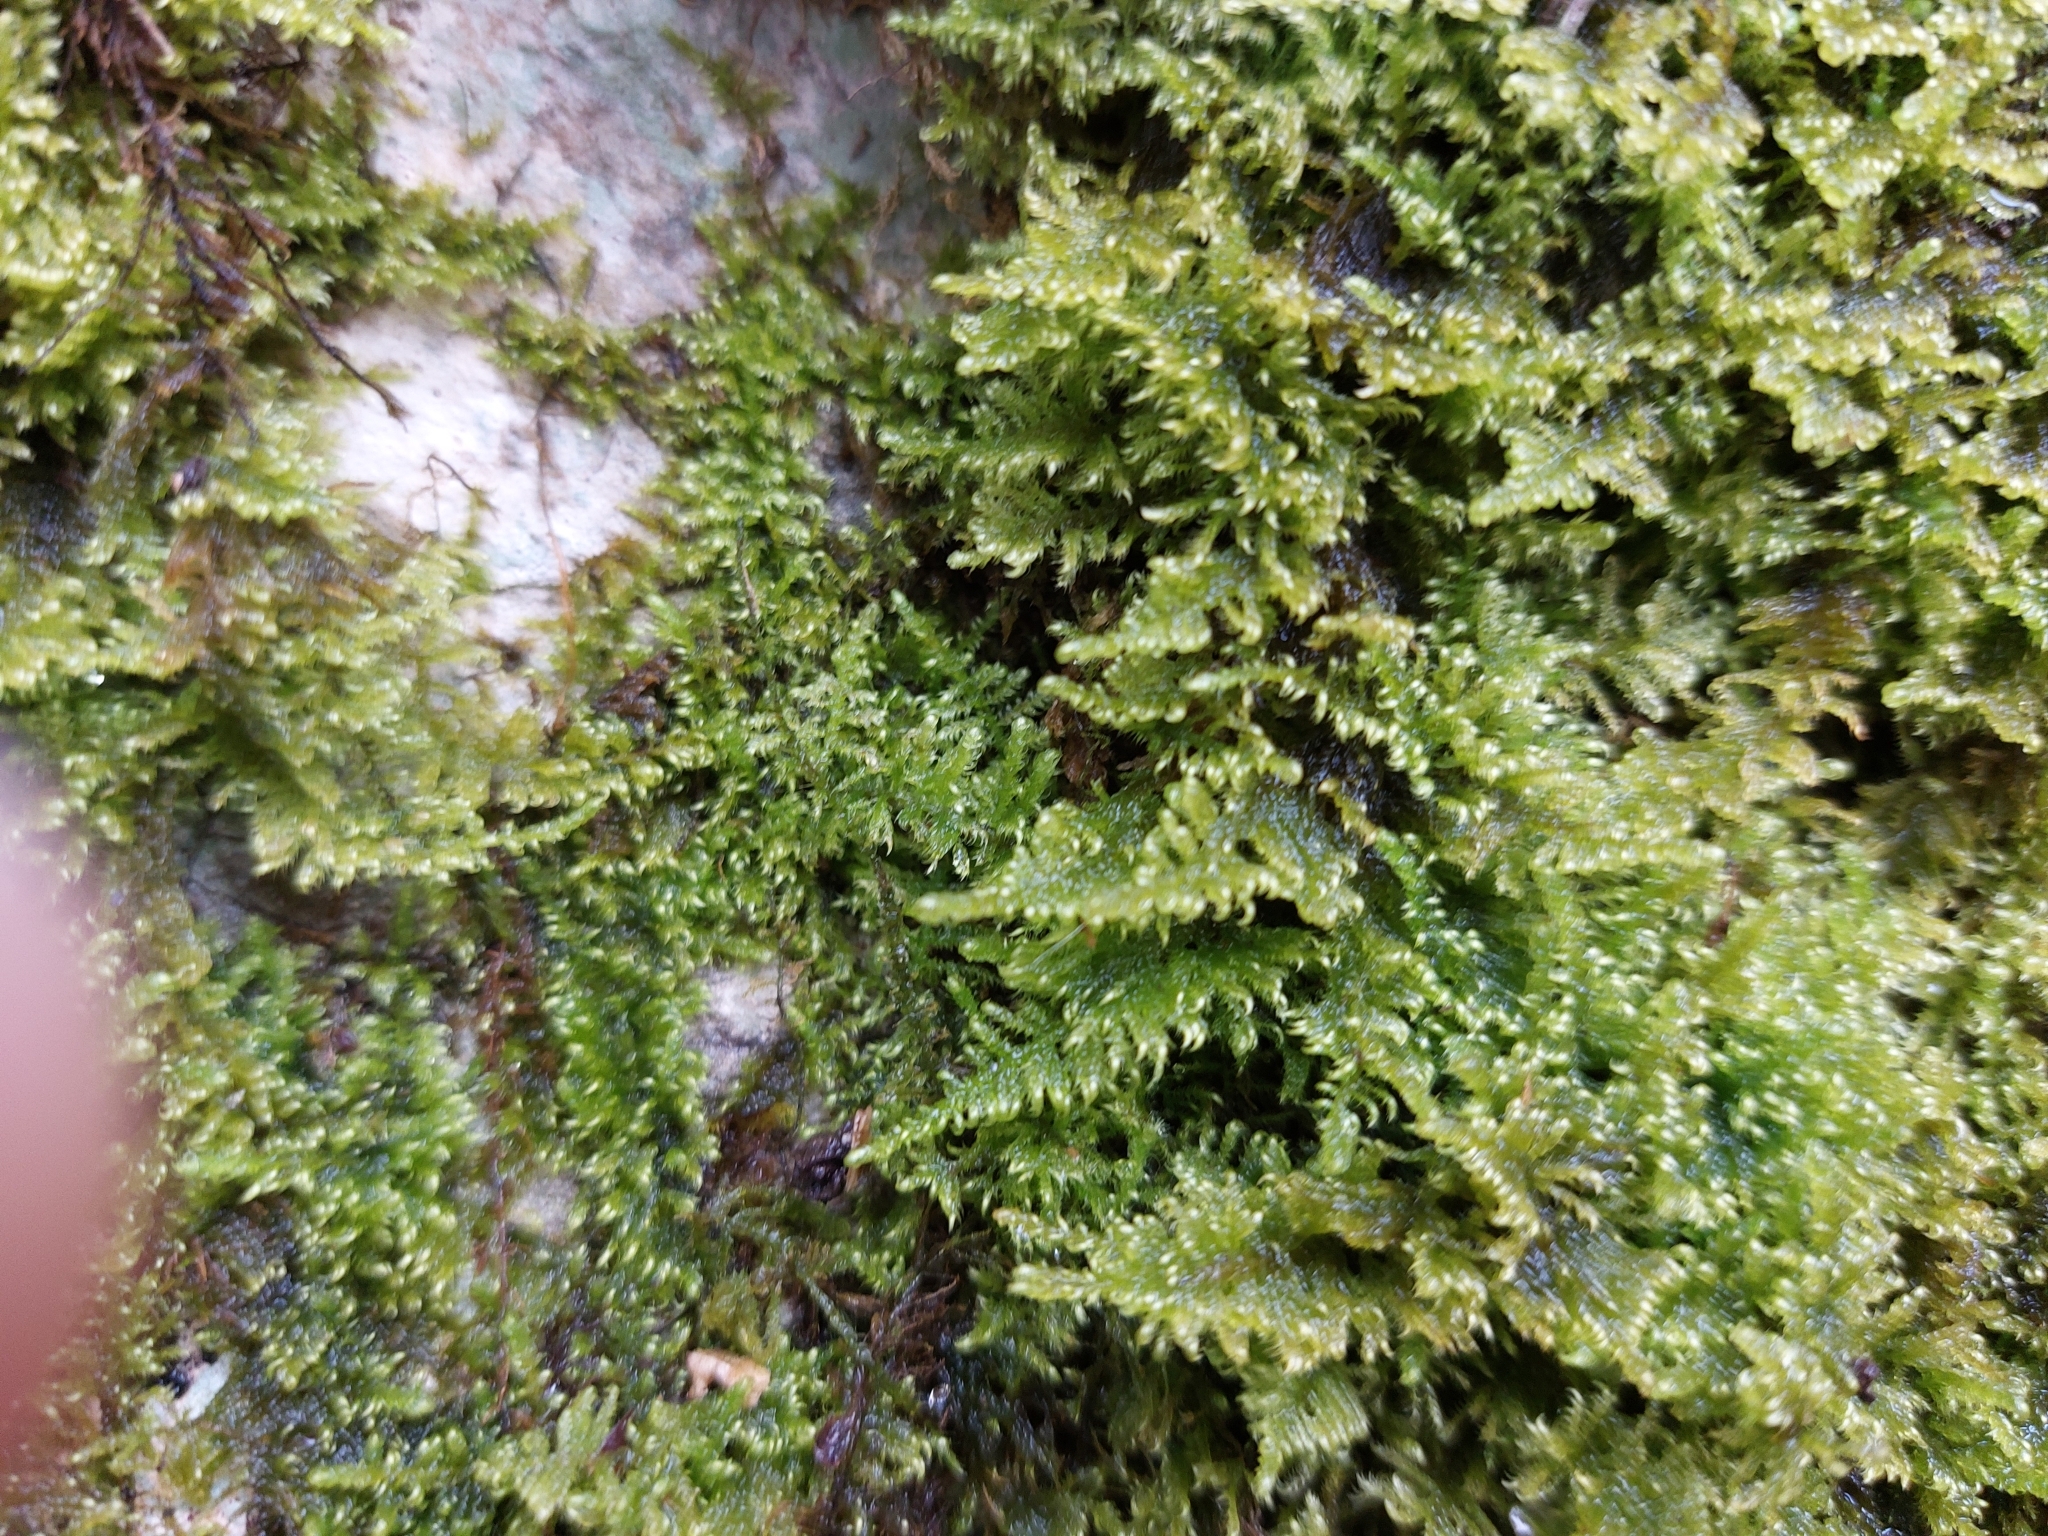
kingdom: Plantae
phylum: Bryophyta
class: Bryopsida
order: Hypnales
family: Myuriaceae
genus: Ctenidium
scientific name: Ctenidium molluscum
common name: Chalk comb-moss
